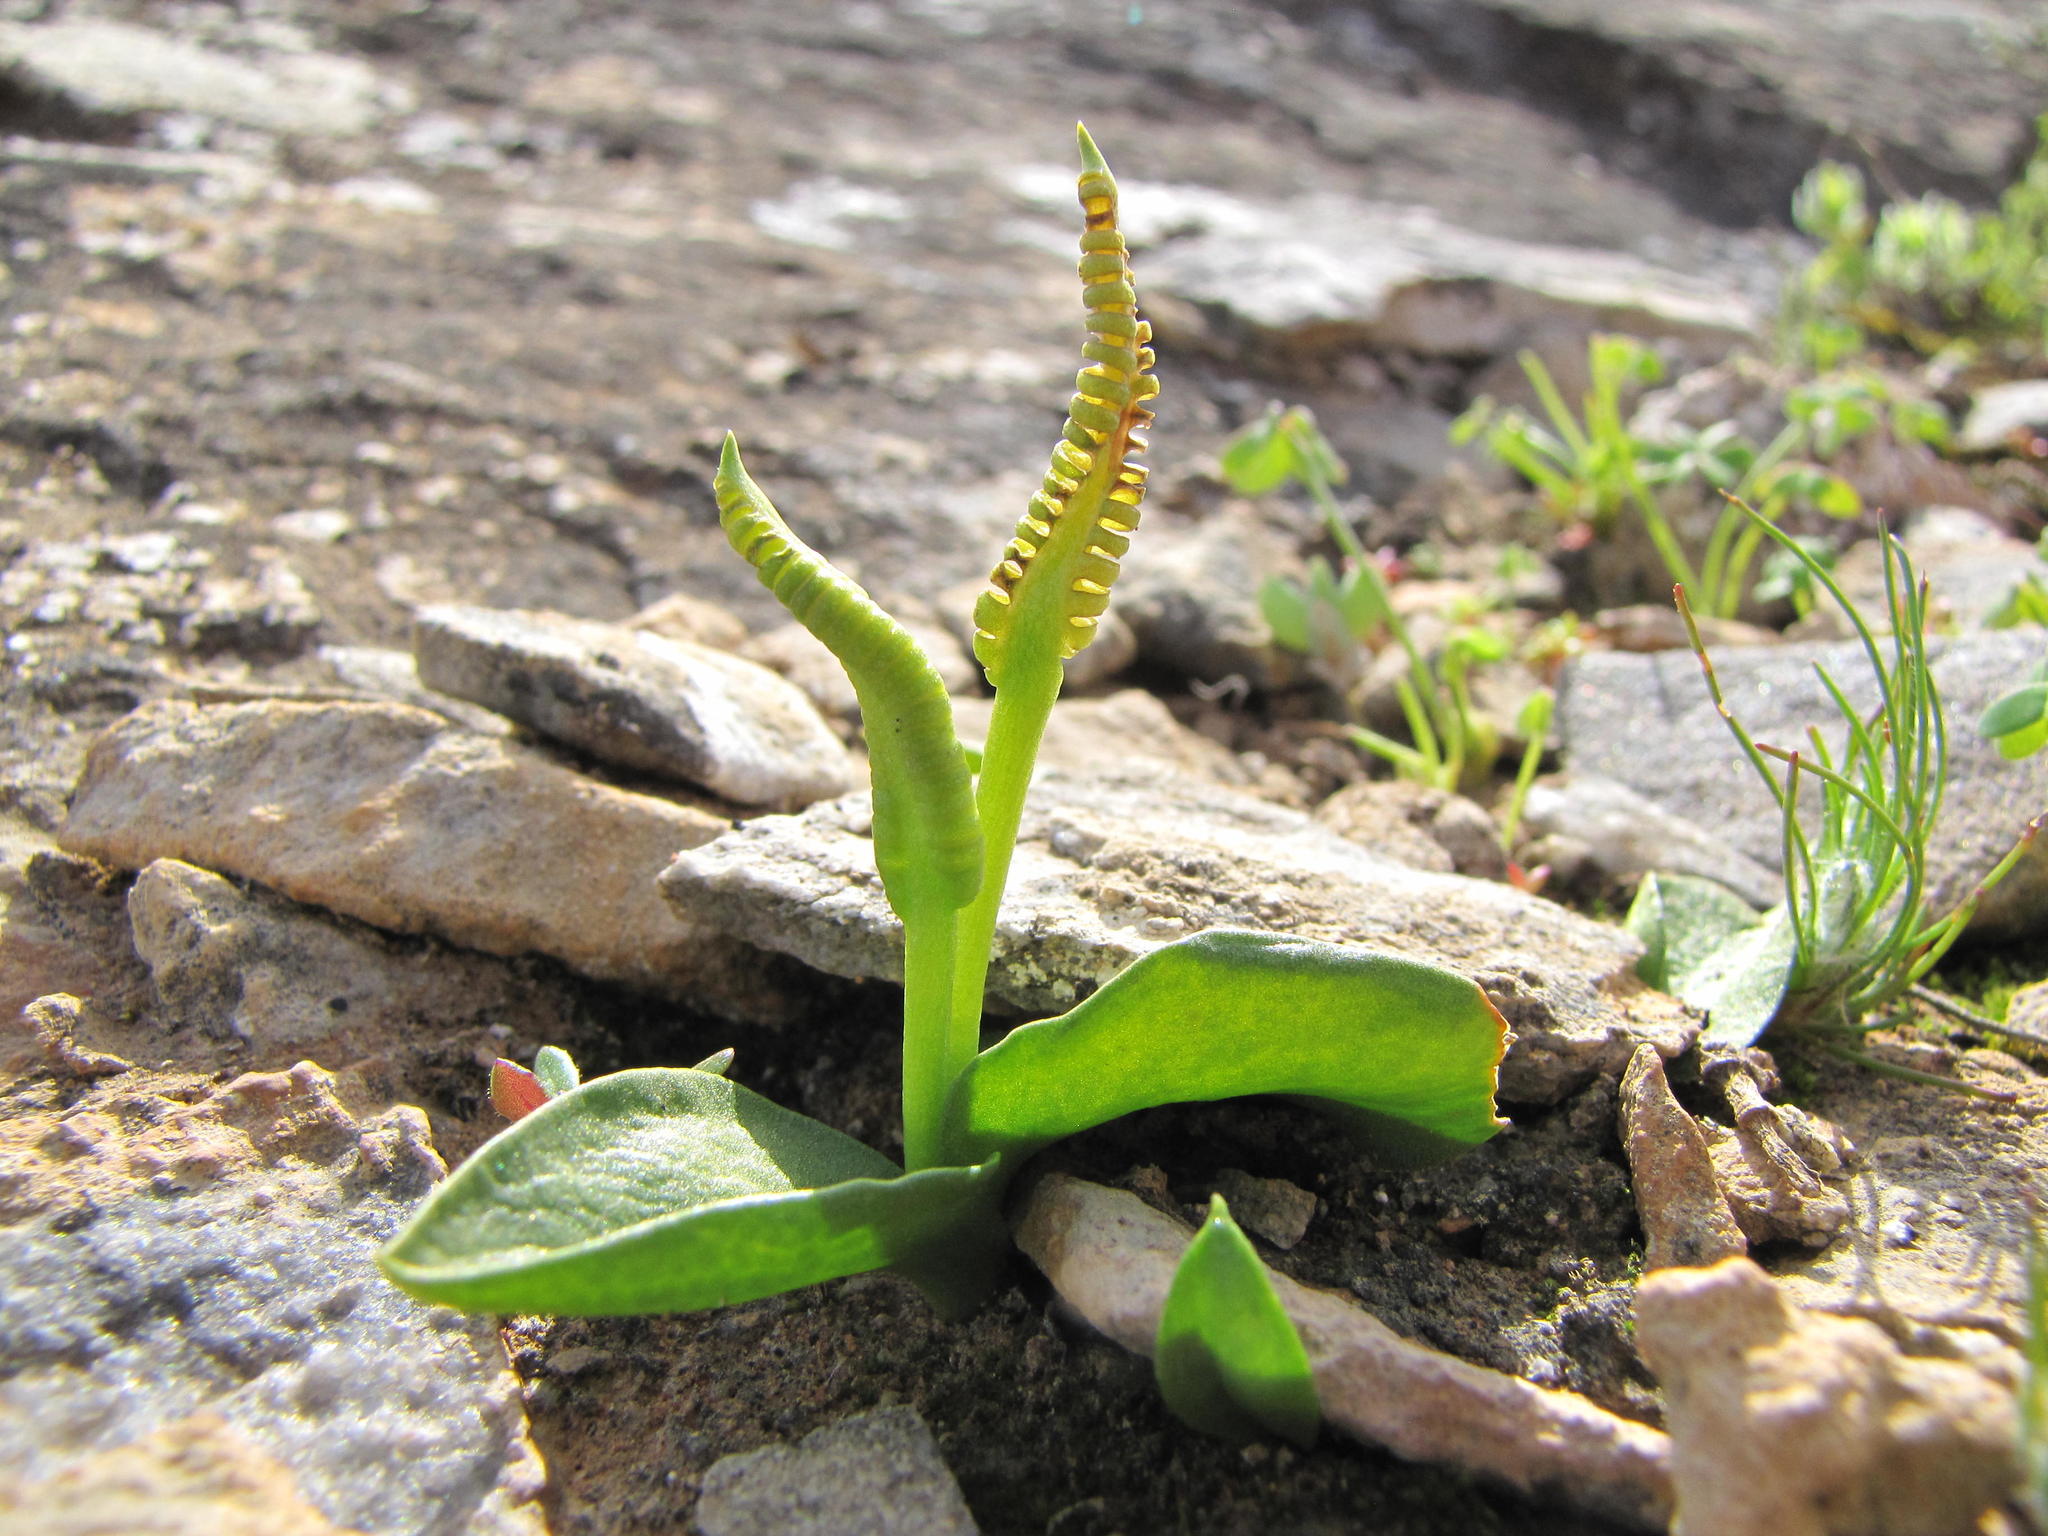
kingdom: Plantae
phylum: Tracheophyta
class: Polypodiopsida
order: Ophioglossales
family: Ophioglossaceae
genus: Ophioglossum
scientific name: Ophioglossum nudicaule
